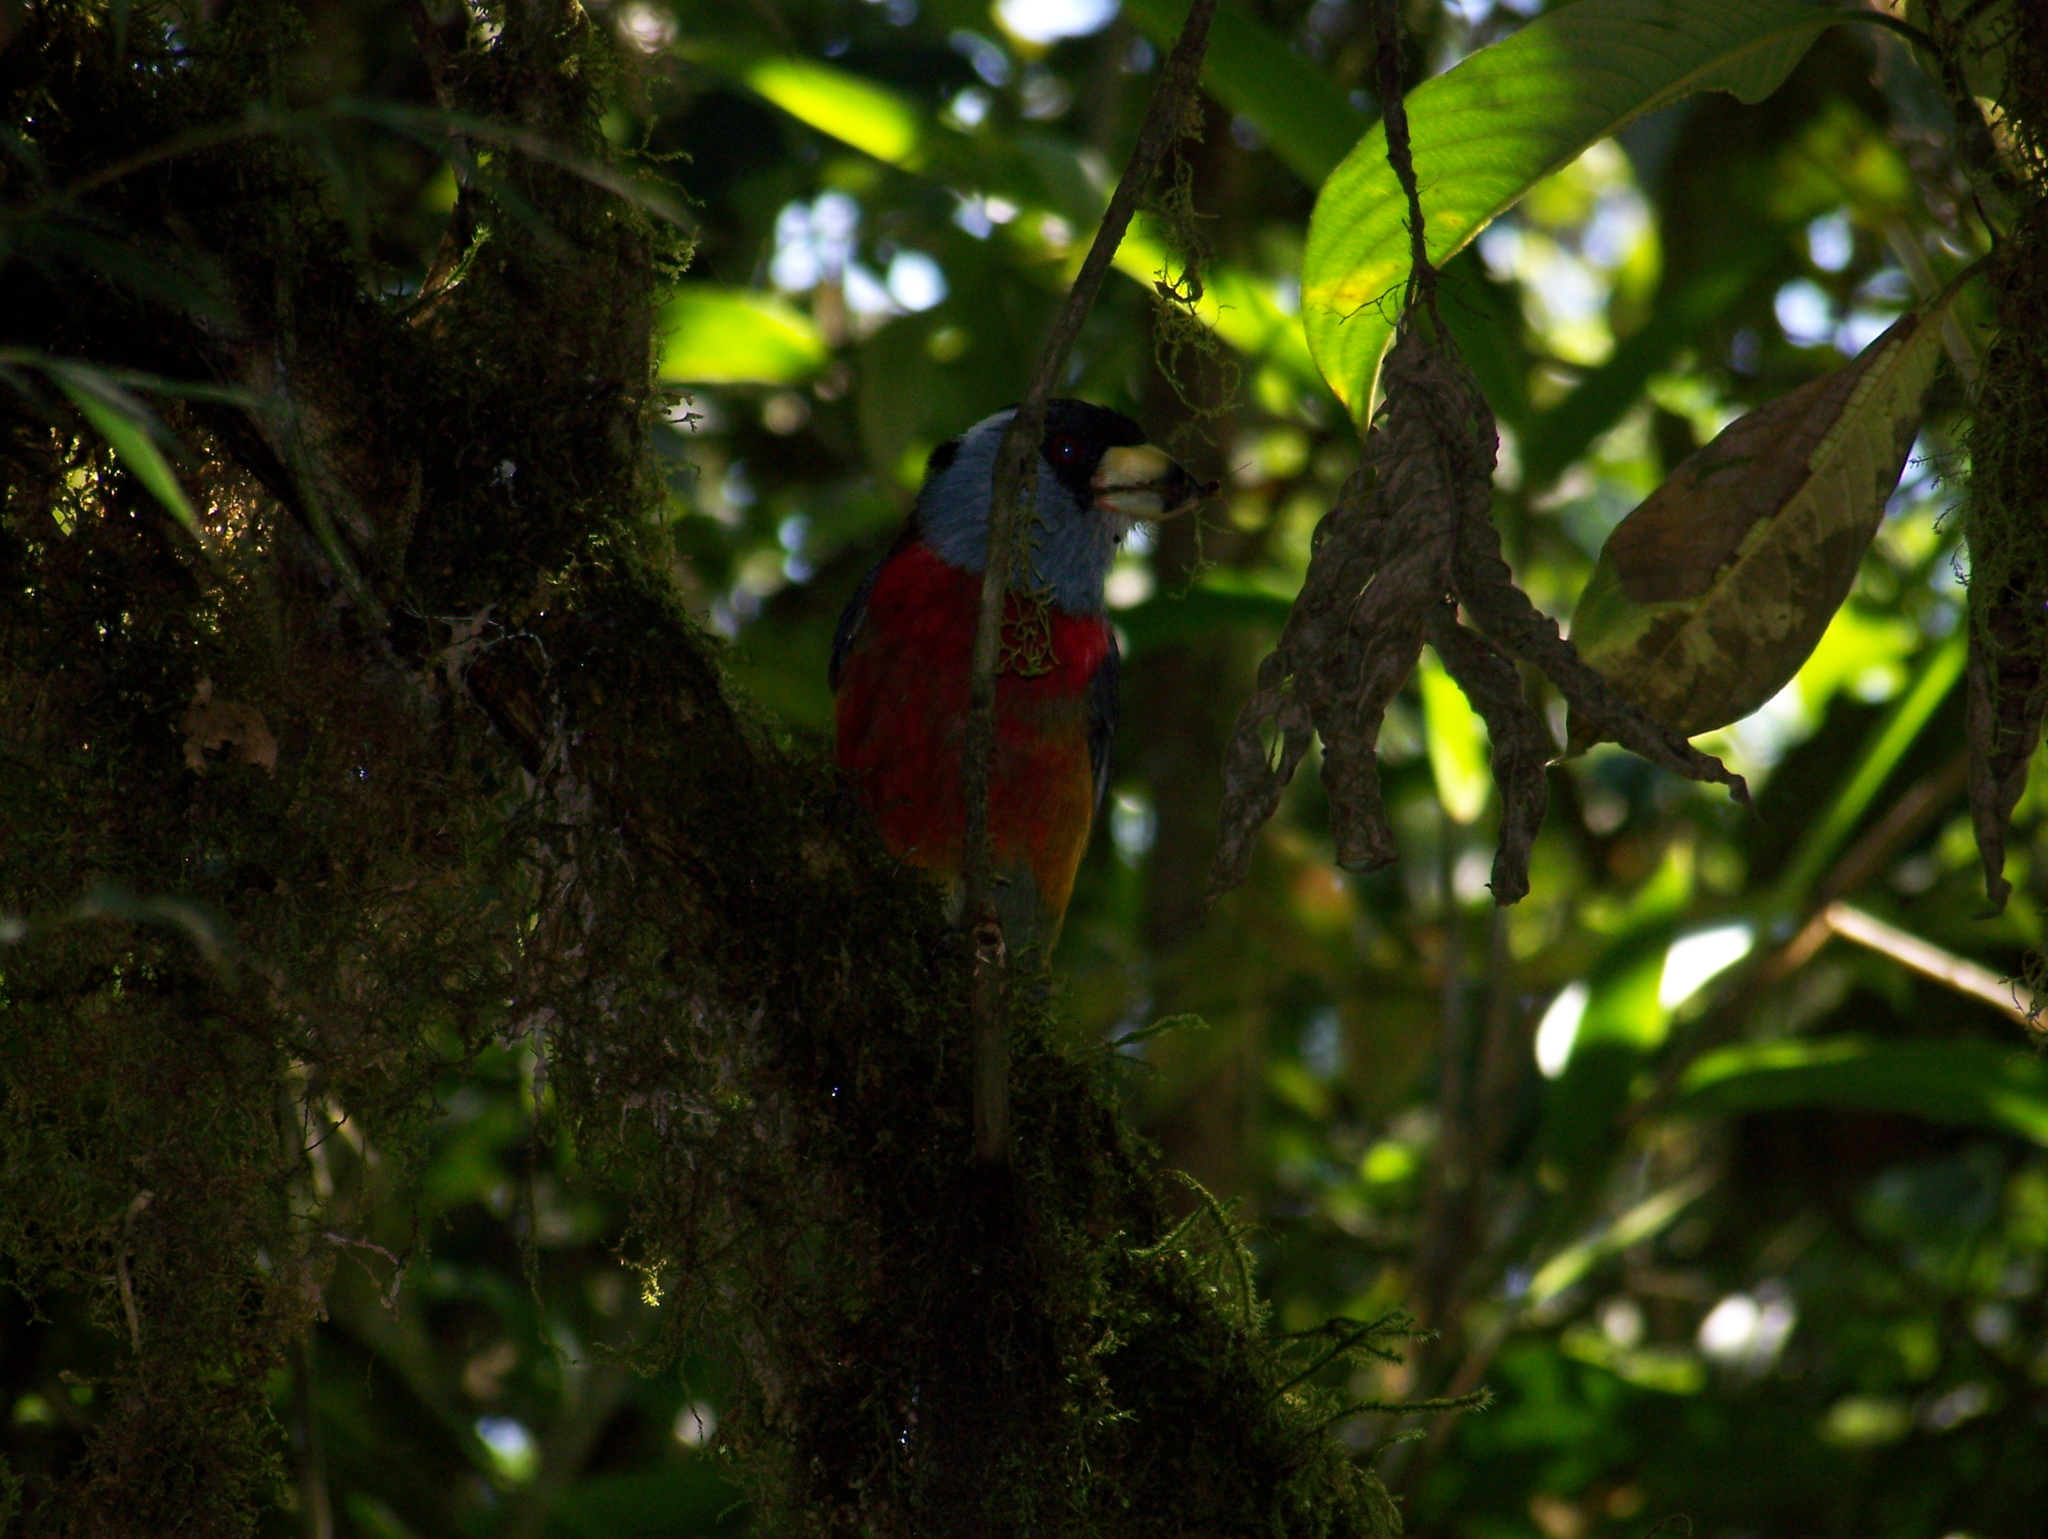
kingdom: Animalia
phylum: Chordata
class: Aves
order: Piciformes
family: Semnornithidae
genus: Semnornis
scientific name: Semnornis ramphastinus
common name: Toucan barbet
